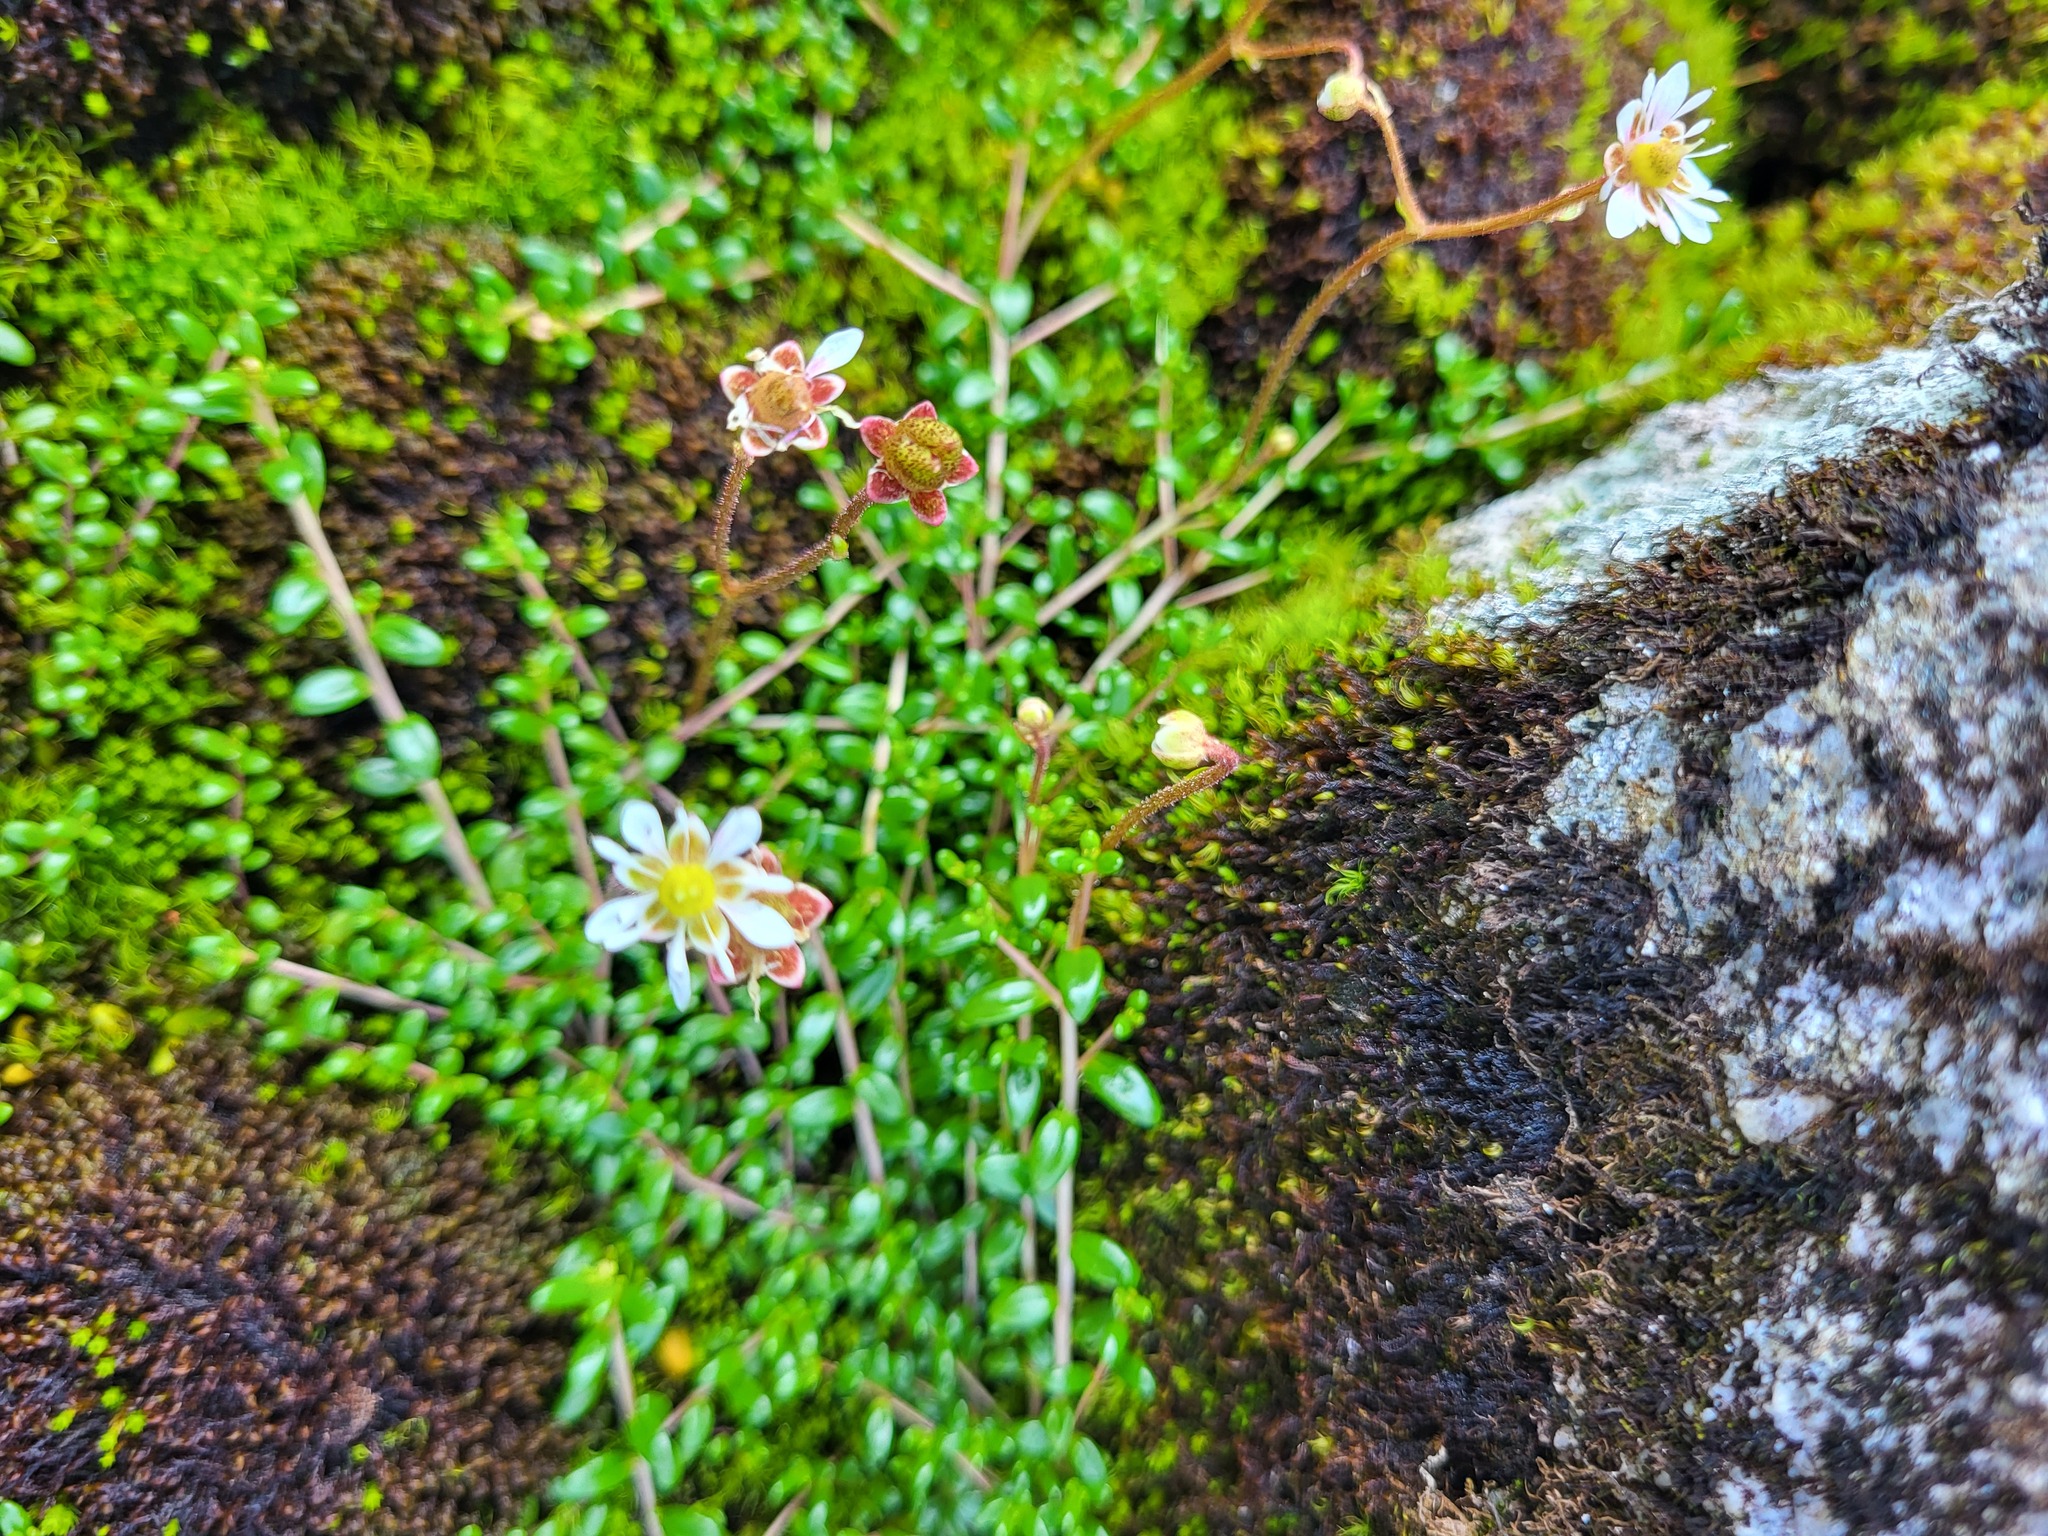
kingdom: Plantae
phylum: Tracheophyta
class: Magnoliopsida
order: Saxifragales
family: Saxifragaceae
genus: Micranthes
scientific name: Micranthes tolmiei
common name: Tolmie's saxifrage
